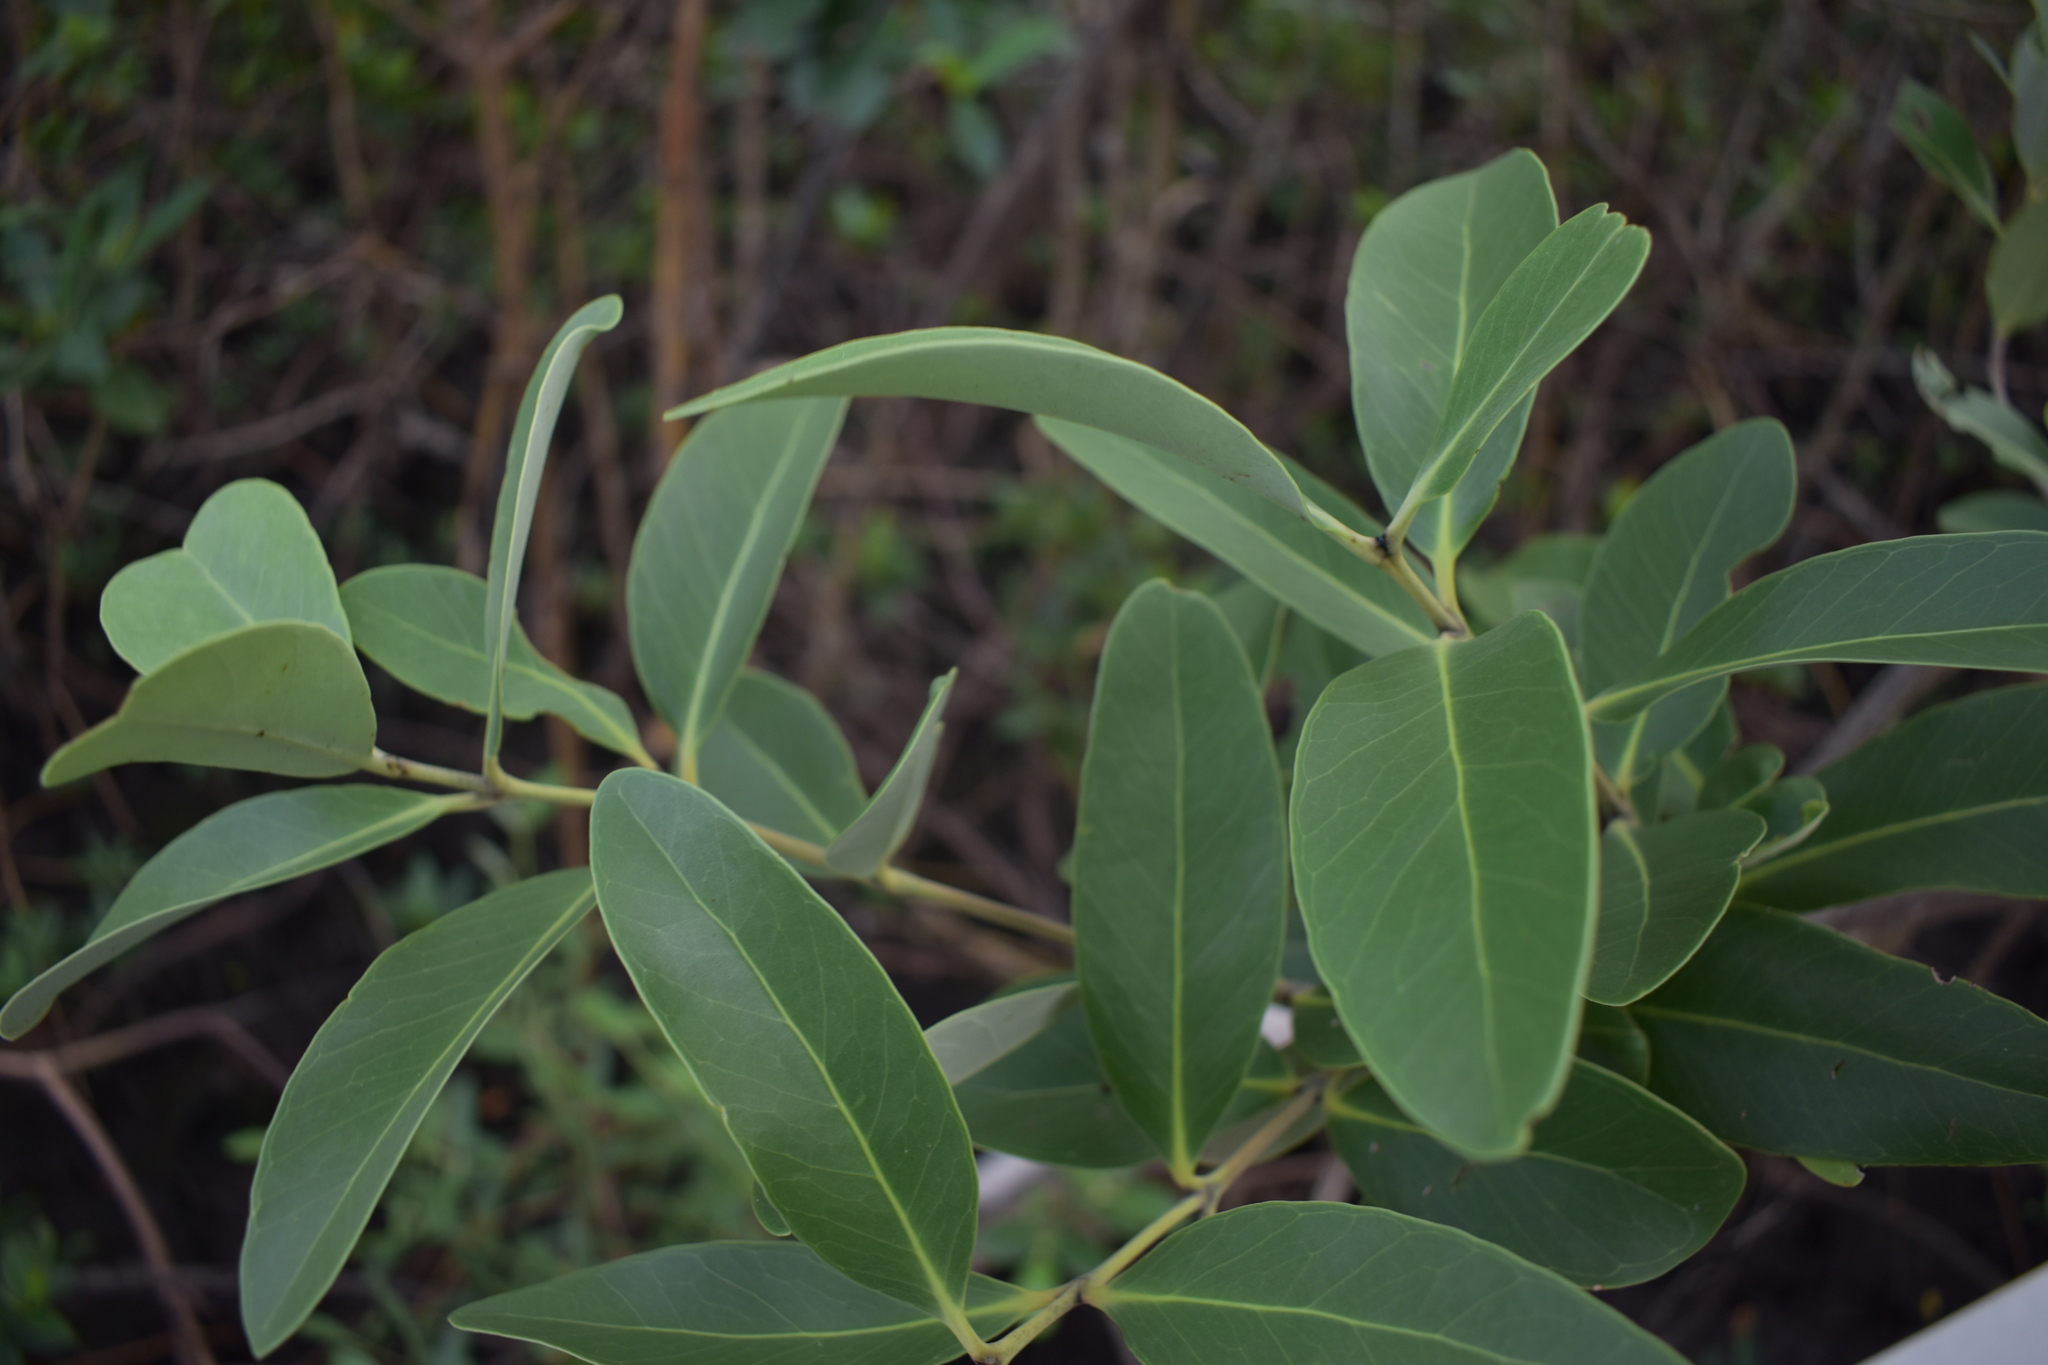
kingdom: Plantae
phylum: Tracheophyta
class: Magnoliopsida
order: Lamiales
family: Acanthaceae
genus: Avicennia
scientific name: Avicennia germinans
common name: Black mangrove
